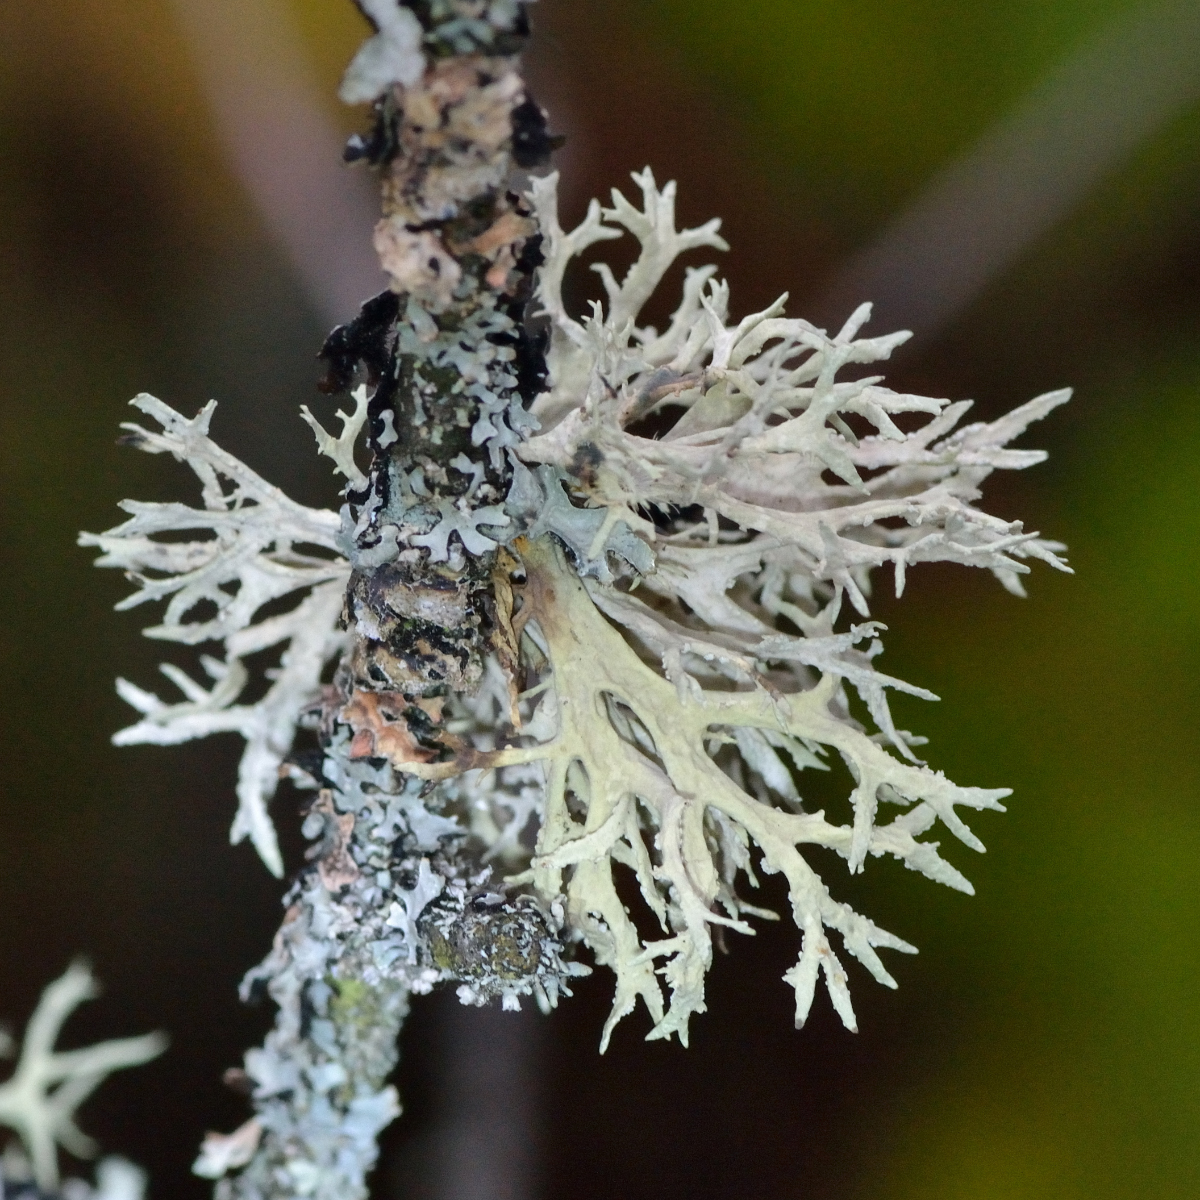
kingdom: Fungi
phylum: Ascomycota
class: Lecanoromycetes
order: Lecanorales
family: Parmeliaceae
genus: Evernia
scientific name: Evernia prunastri
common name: Oak moss
